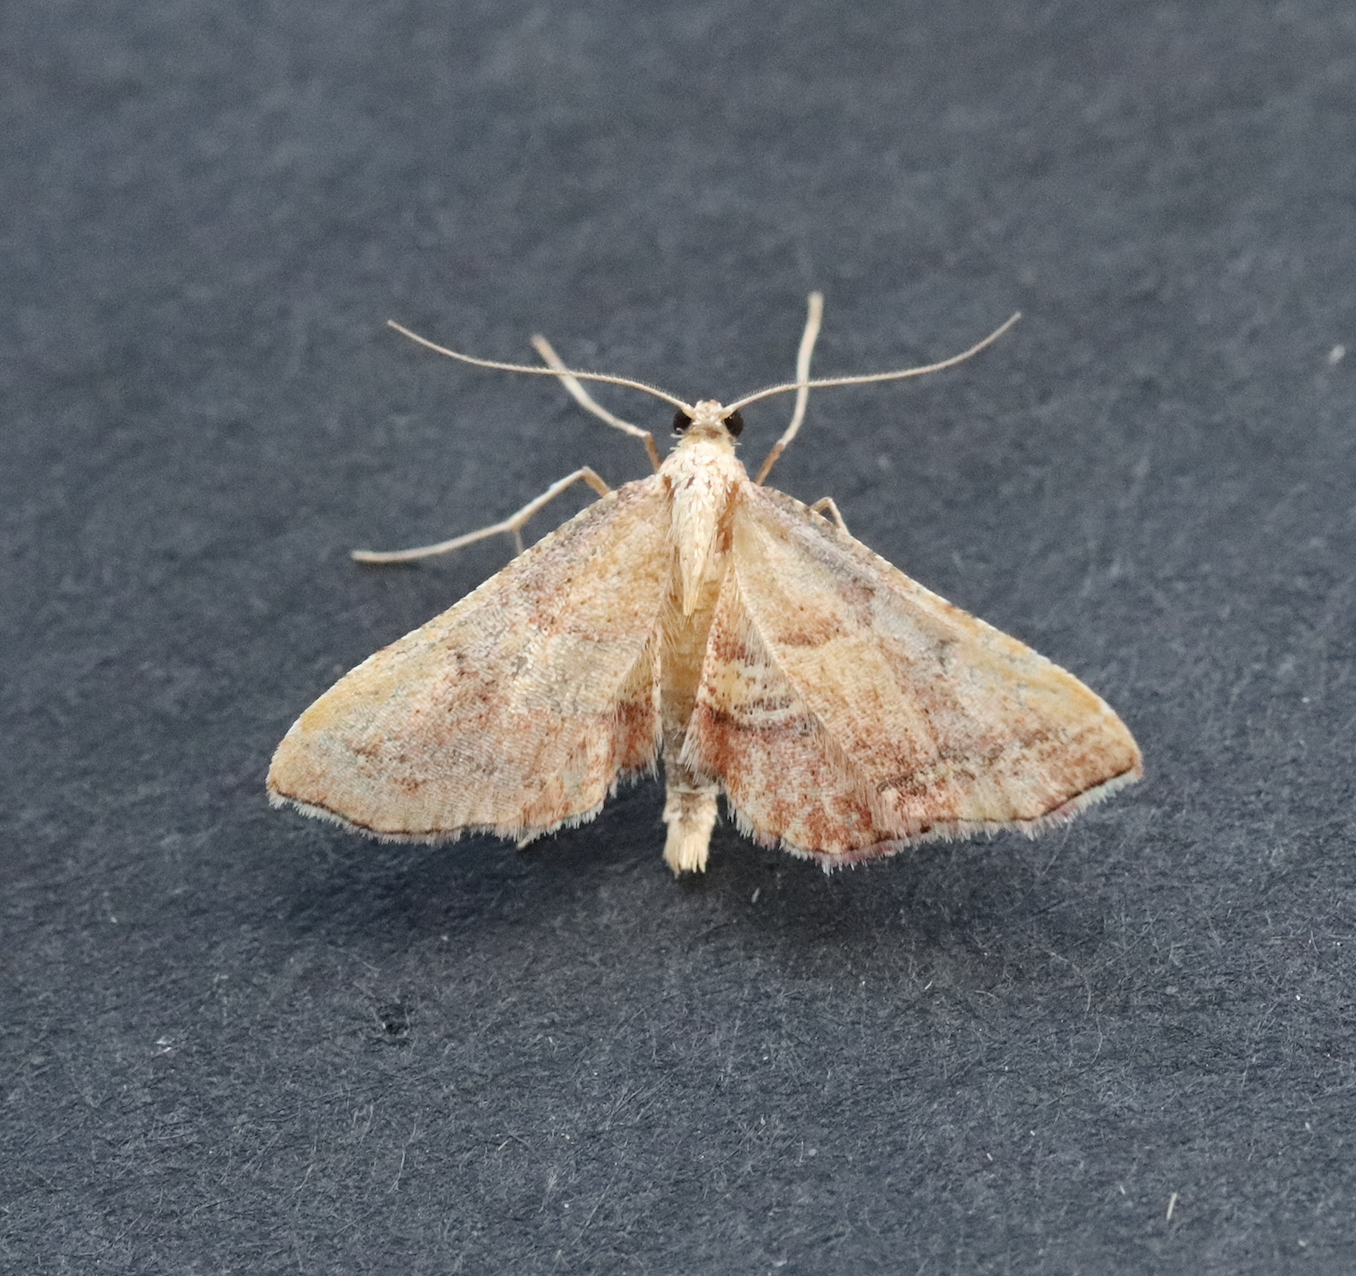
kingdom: Animalia
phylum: Arthropoda
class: Insecta
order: Lepidoptera
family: Pyralidae
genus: Endotricha
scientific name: Endotricha flammealis
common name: Rosy tabby
